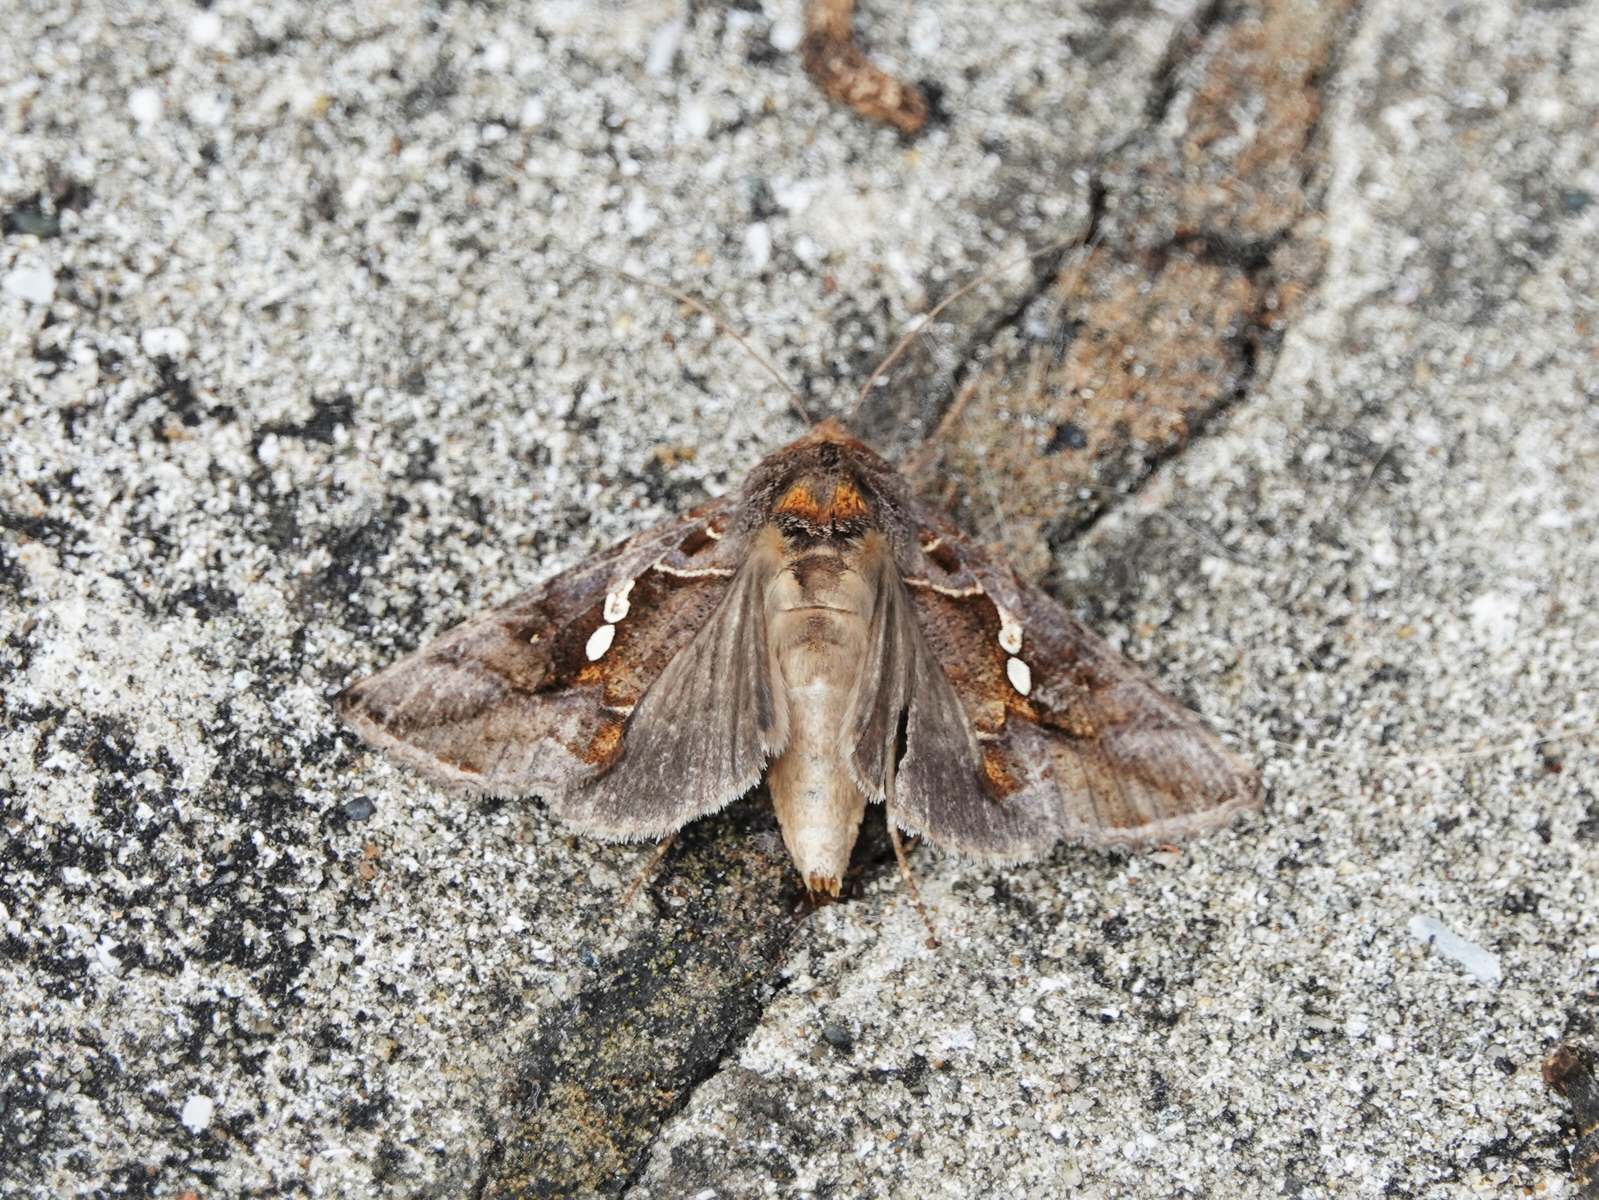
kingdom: Animalia
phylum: Arthropoda
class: Insecta
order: Lepidoptera
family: Noctuidae
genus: Chrysodeixis
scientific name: Chrysodeixis eriosoma
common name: Green garden looper
